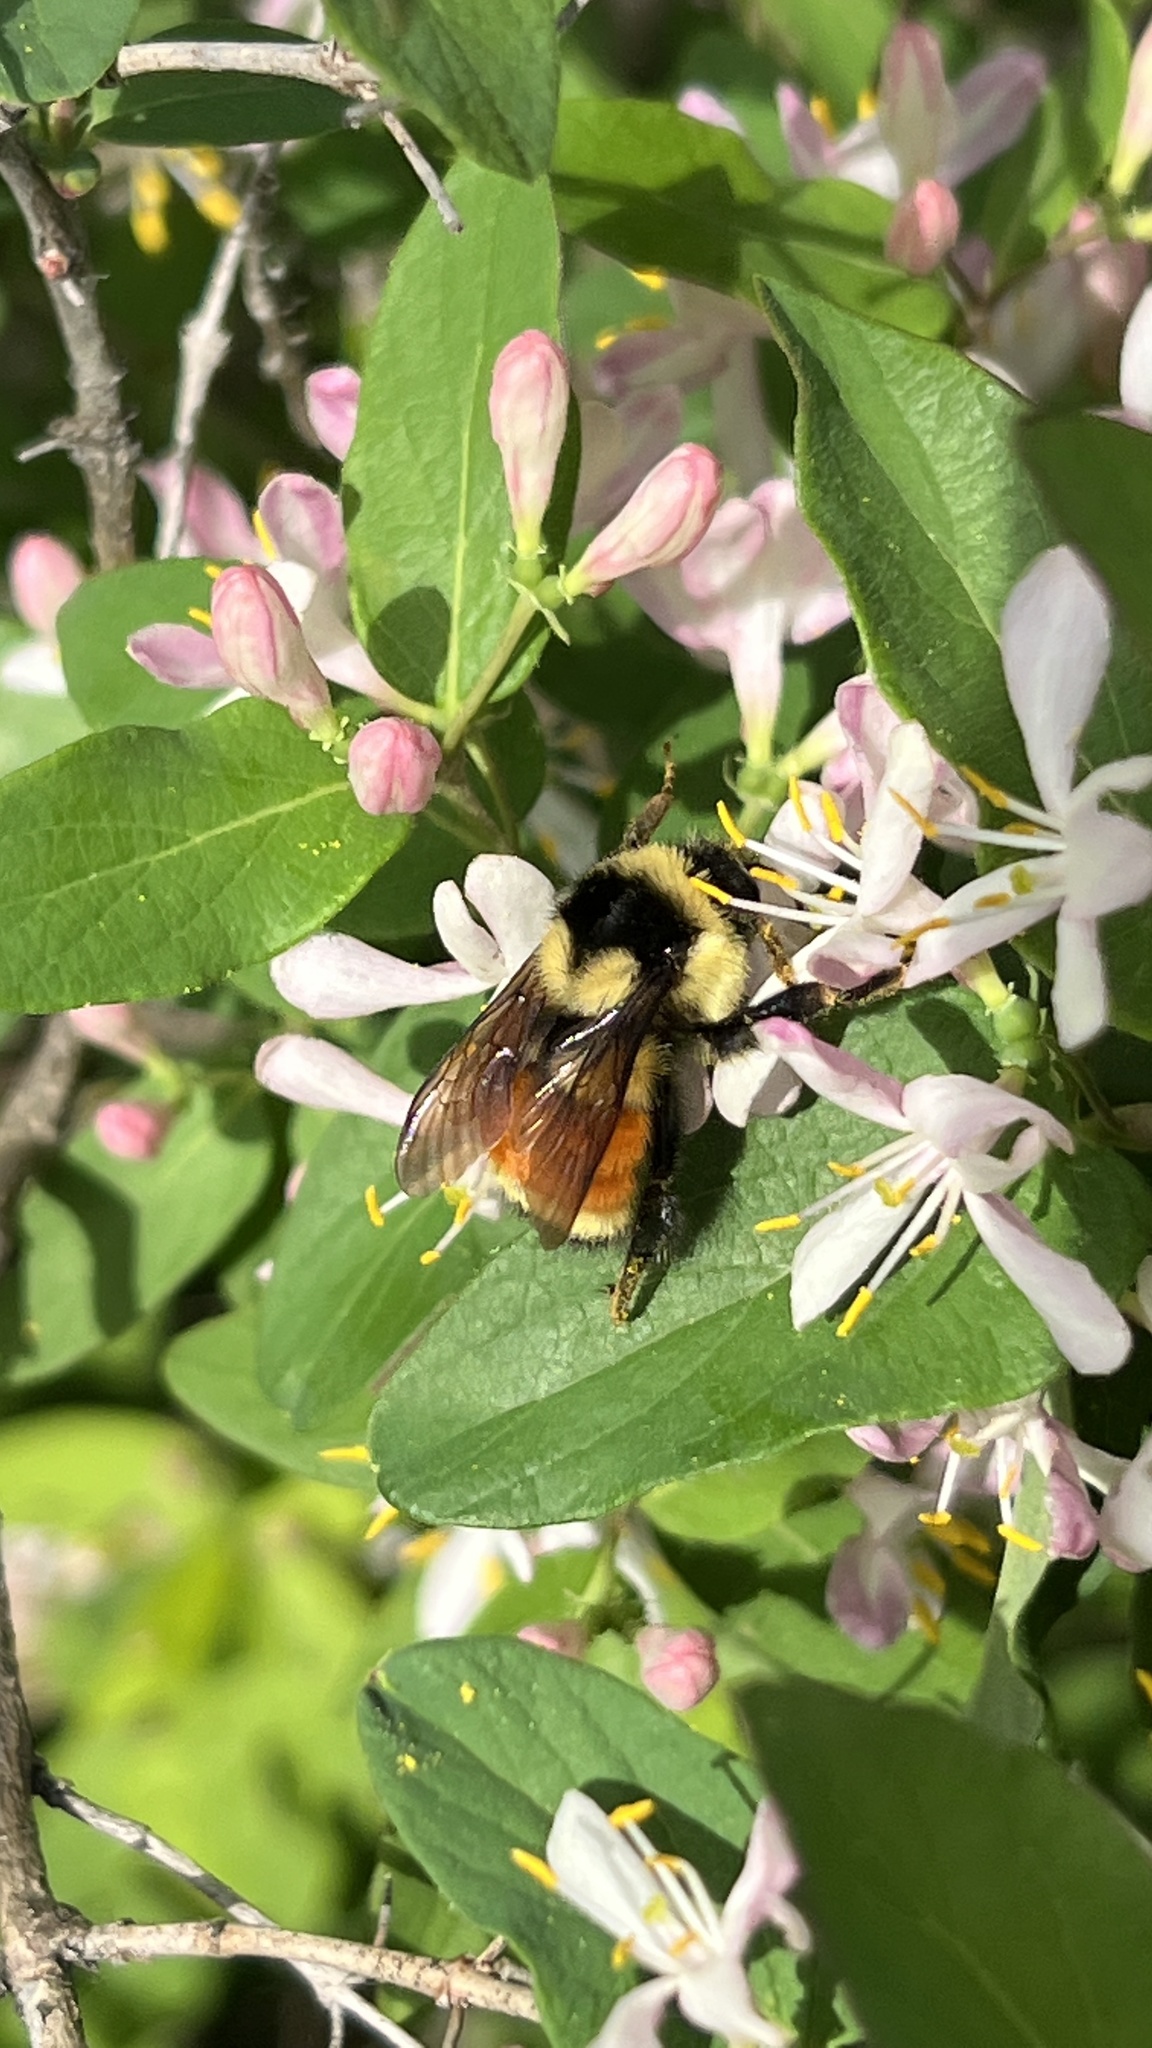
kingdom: Animalia
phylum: Arthropoda
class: Insecta
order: Hymenoptera
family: Apidae
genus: Bombus
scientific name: Bombus ternarius
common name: Tri-colored bumble bee
